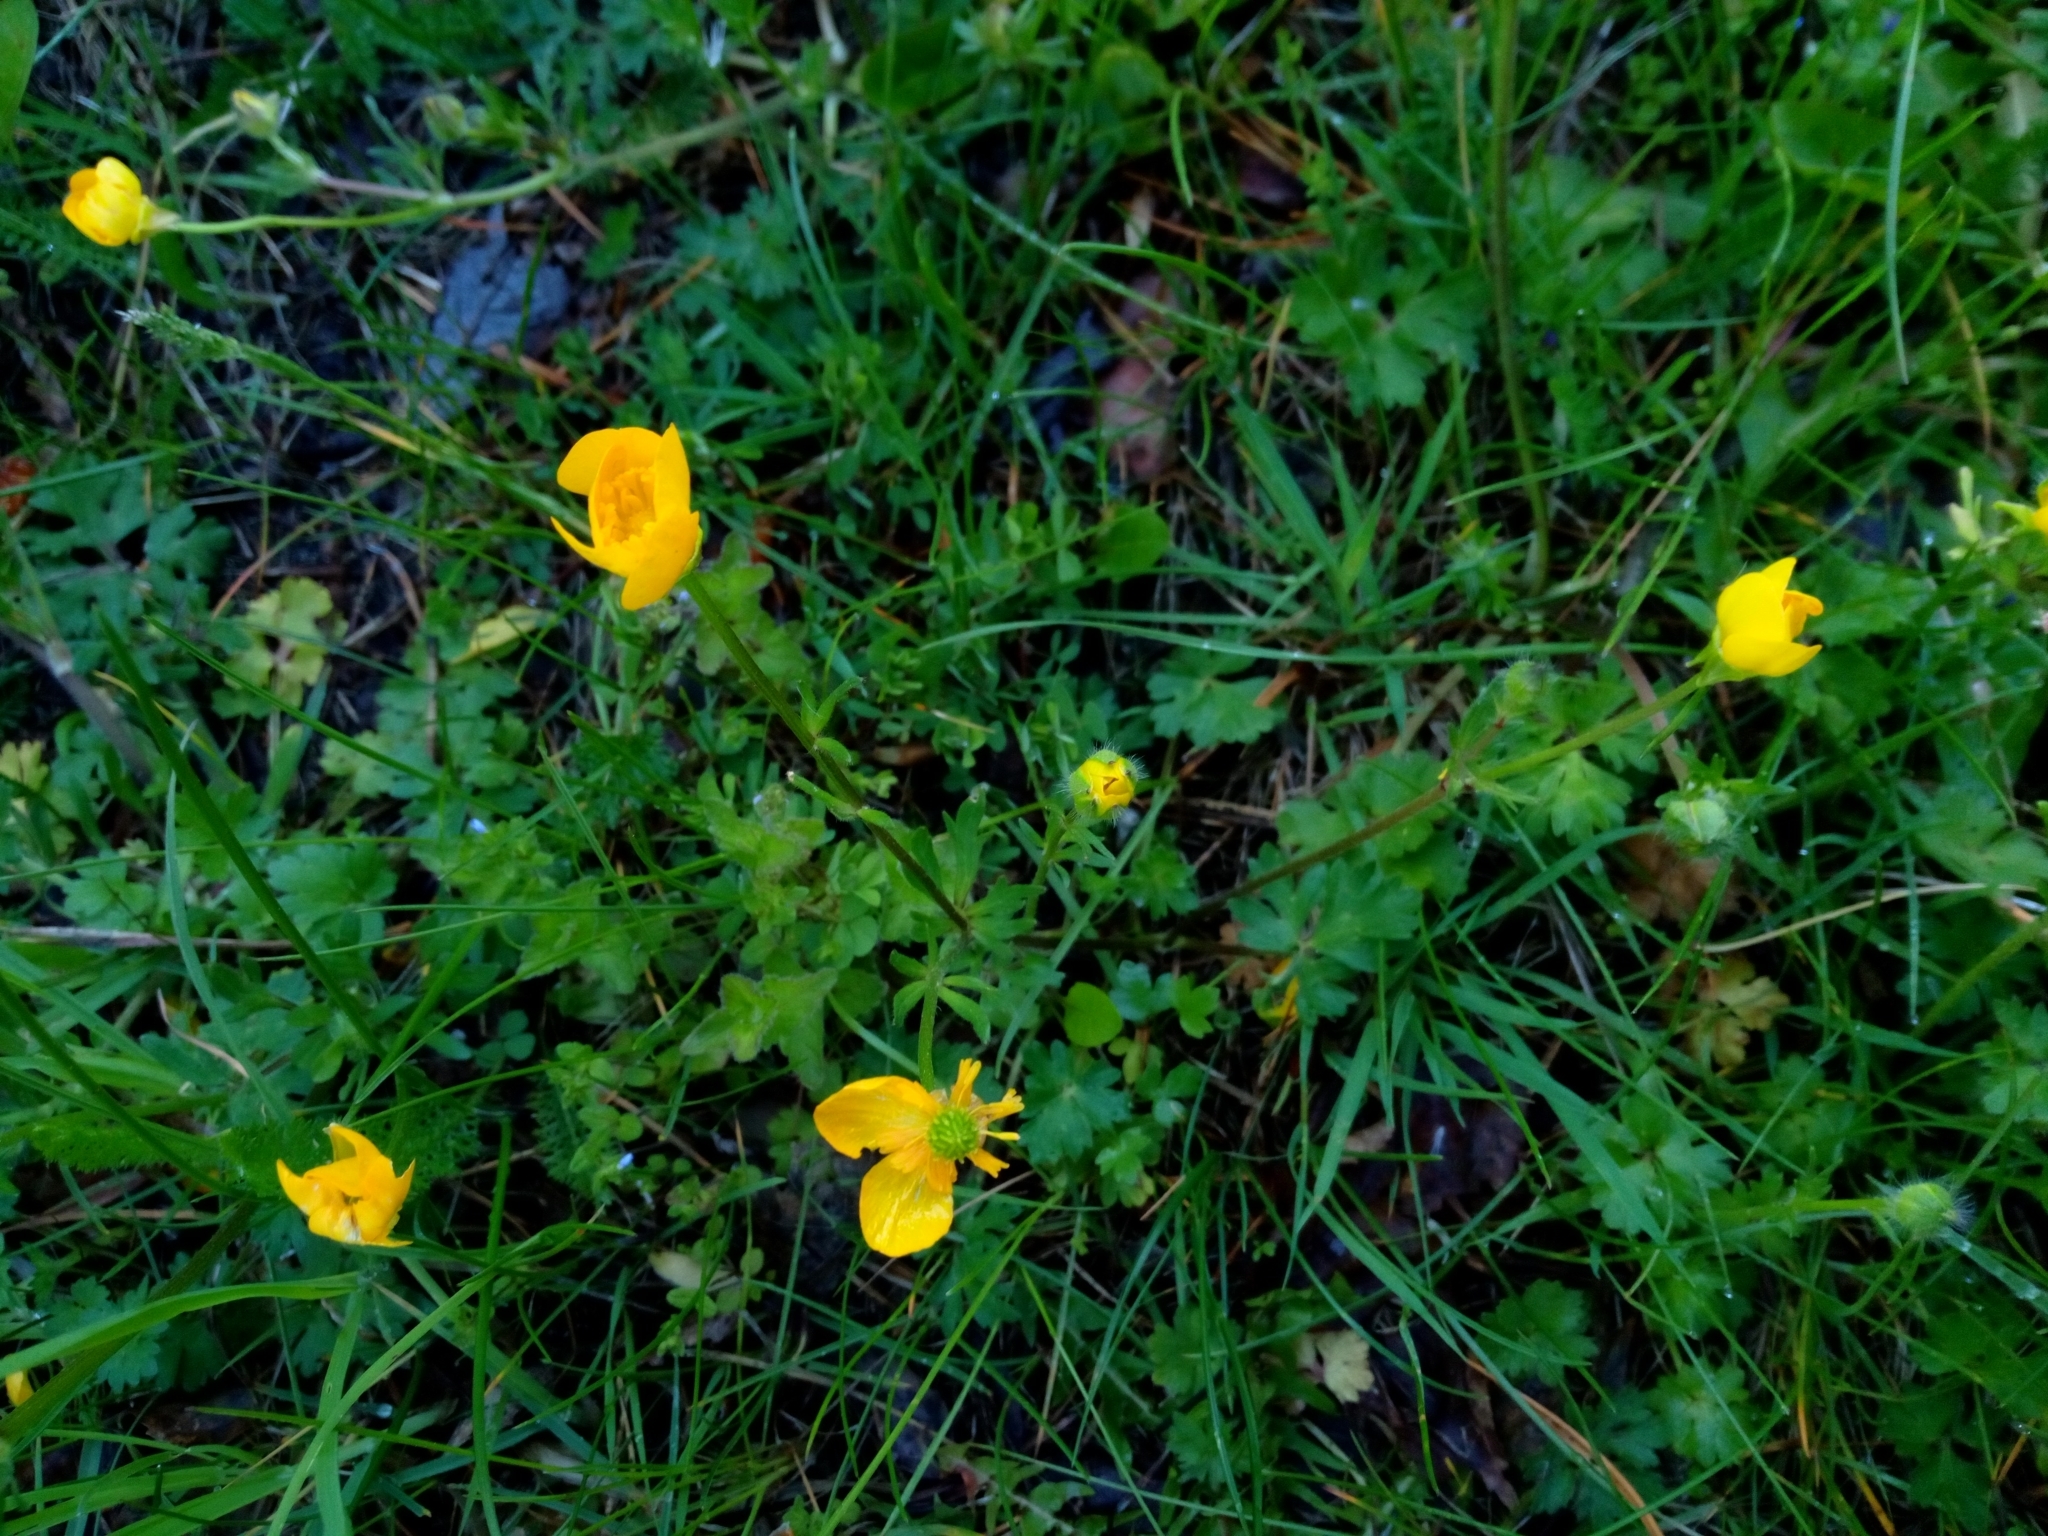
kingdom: Plantae
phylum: Tracheophyta
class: Magnoliopsida
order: Ranunculales
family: Ranunculaceae
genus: Ranunculus
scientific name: Ranunculus bulbosus
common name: Bulbous buttercup
